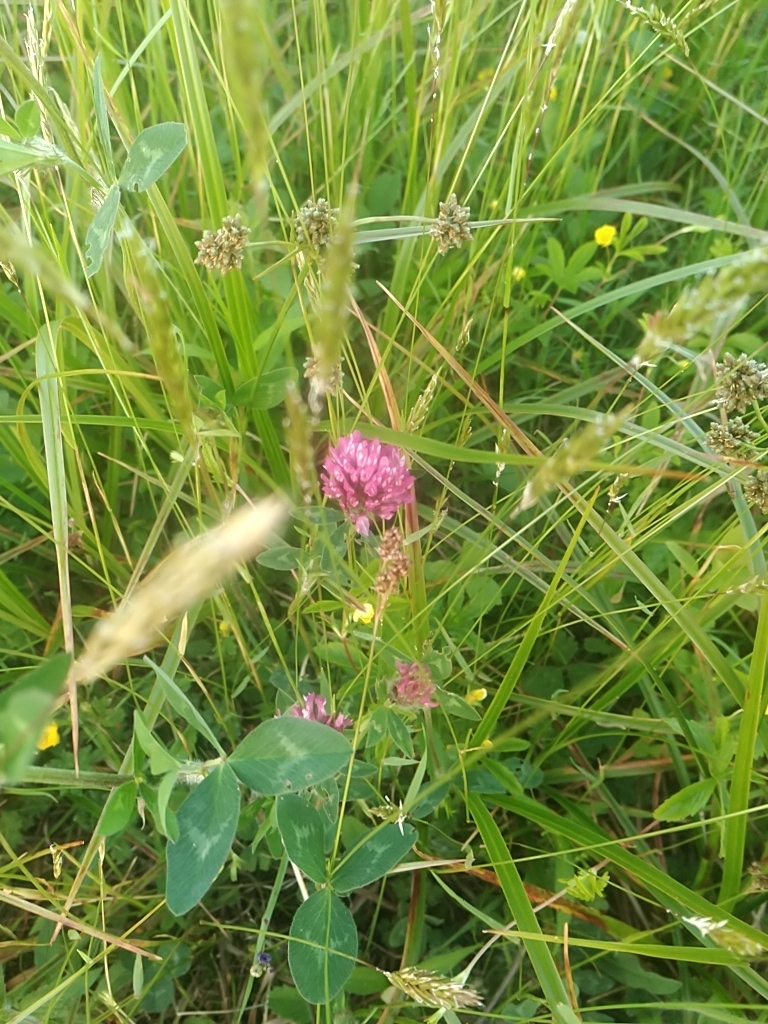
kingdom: Plantae
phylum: Tracheophyta
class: Magnoliopsida
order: Fabales
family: Fabaceae
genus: Trifolium
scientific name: Trifolium pratense
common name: Red clover
